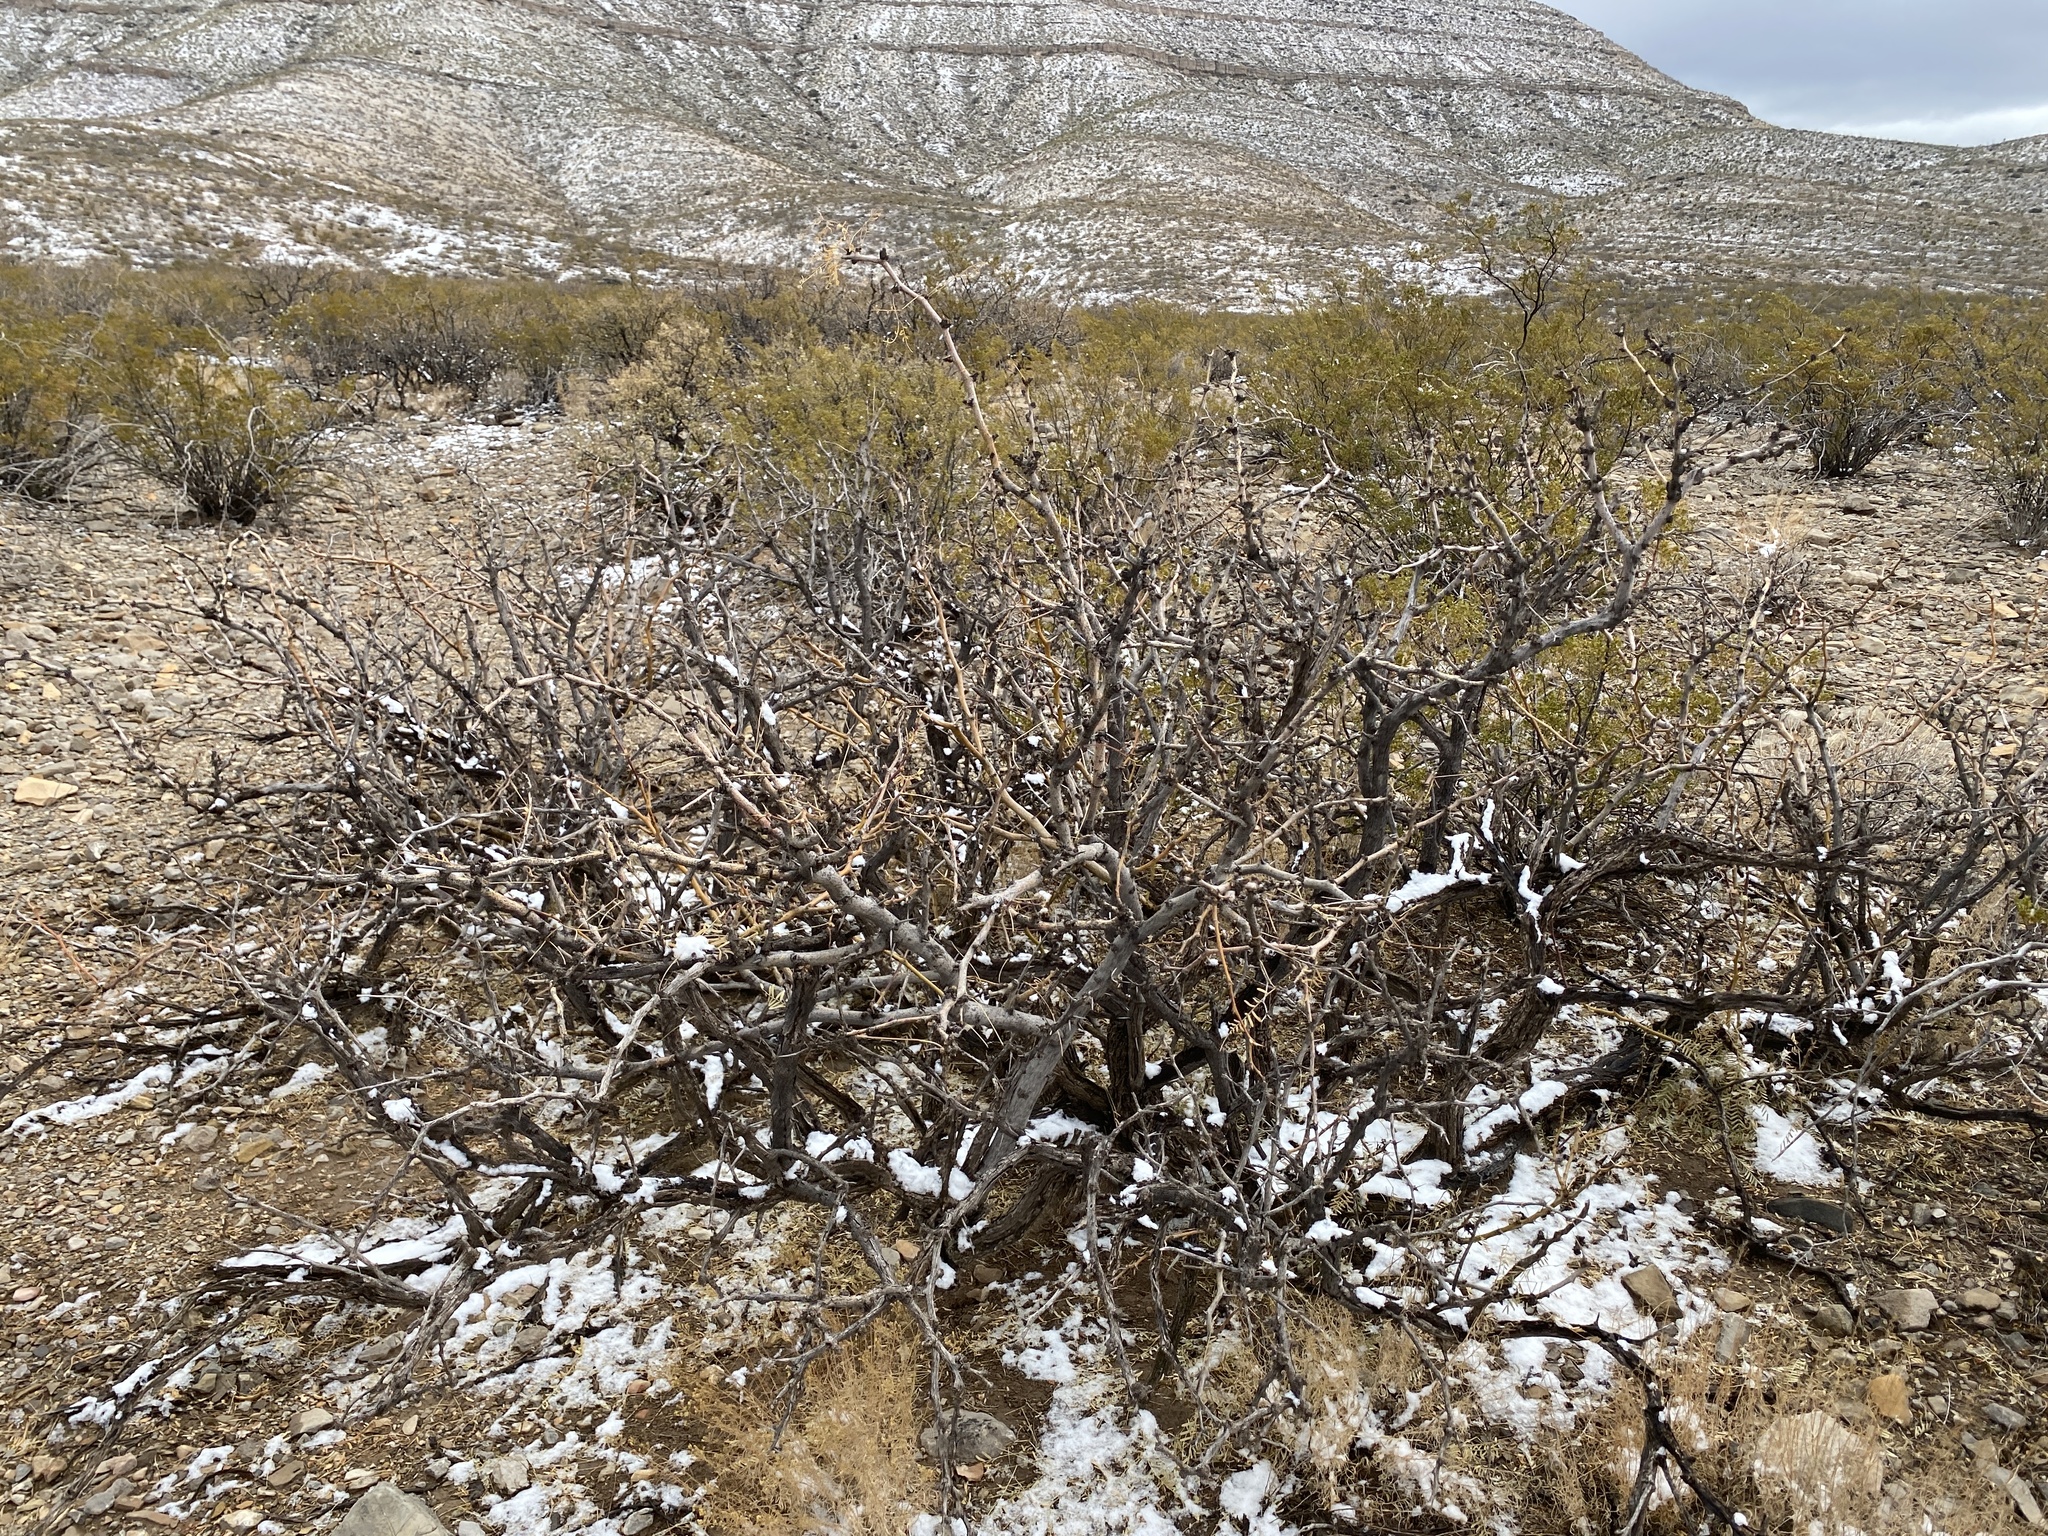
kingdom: Plantae
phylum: Tracheophyta
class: Magnoliopsida
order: Fabales
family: Fabaceae
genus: Prosopis
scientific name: Prosopis glandulosa
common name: Honey mesquite
